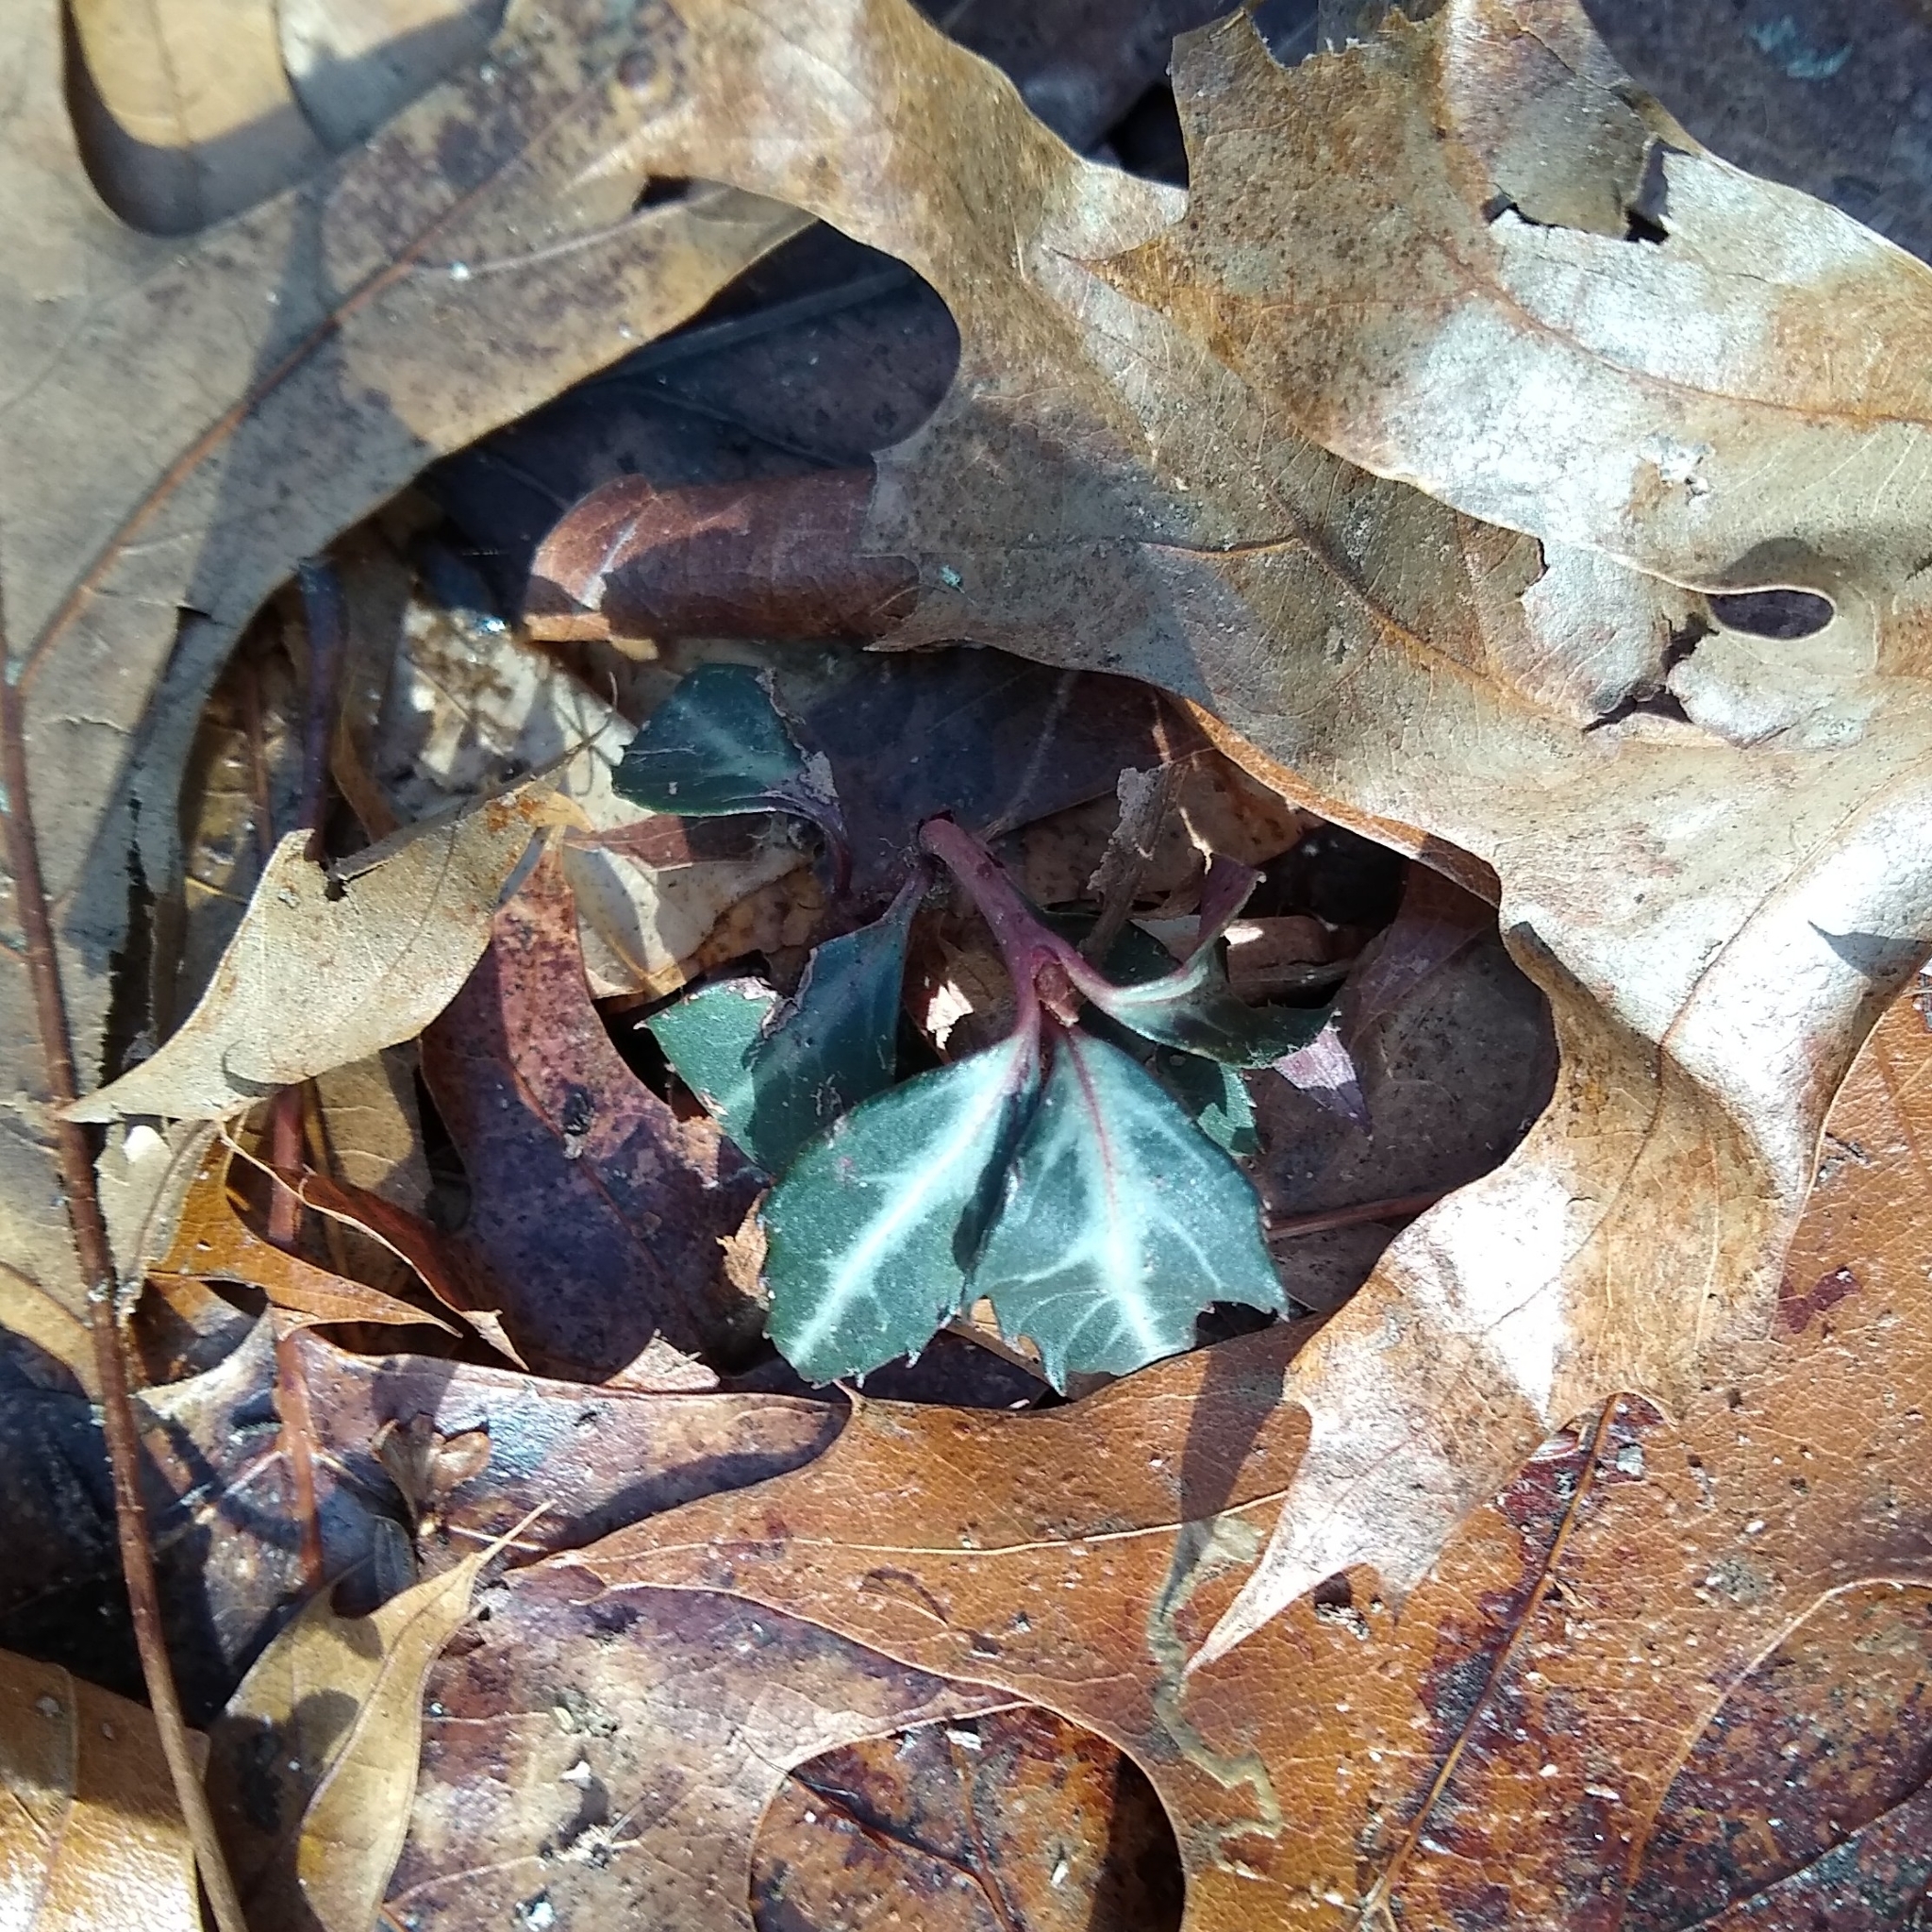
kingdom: Plantae
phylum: Tracheophyta
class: Magnoliopsida
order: Ericales
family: Ericaceae
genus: Chimaphila
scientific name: Chimaphila maculata
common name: Spotted pipsissewa
